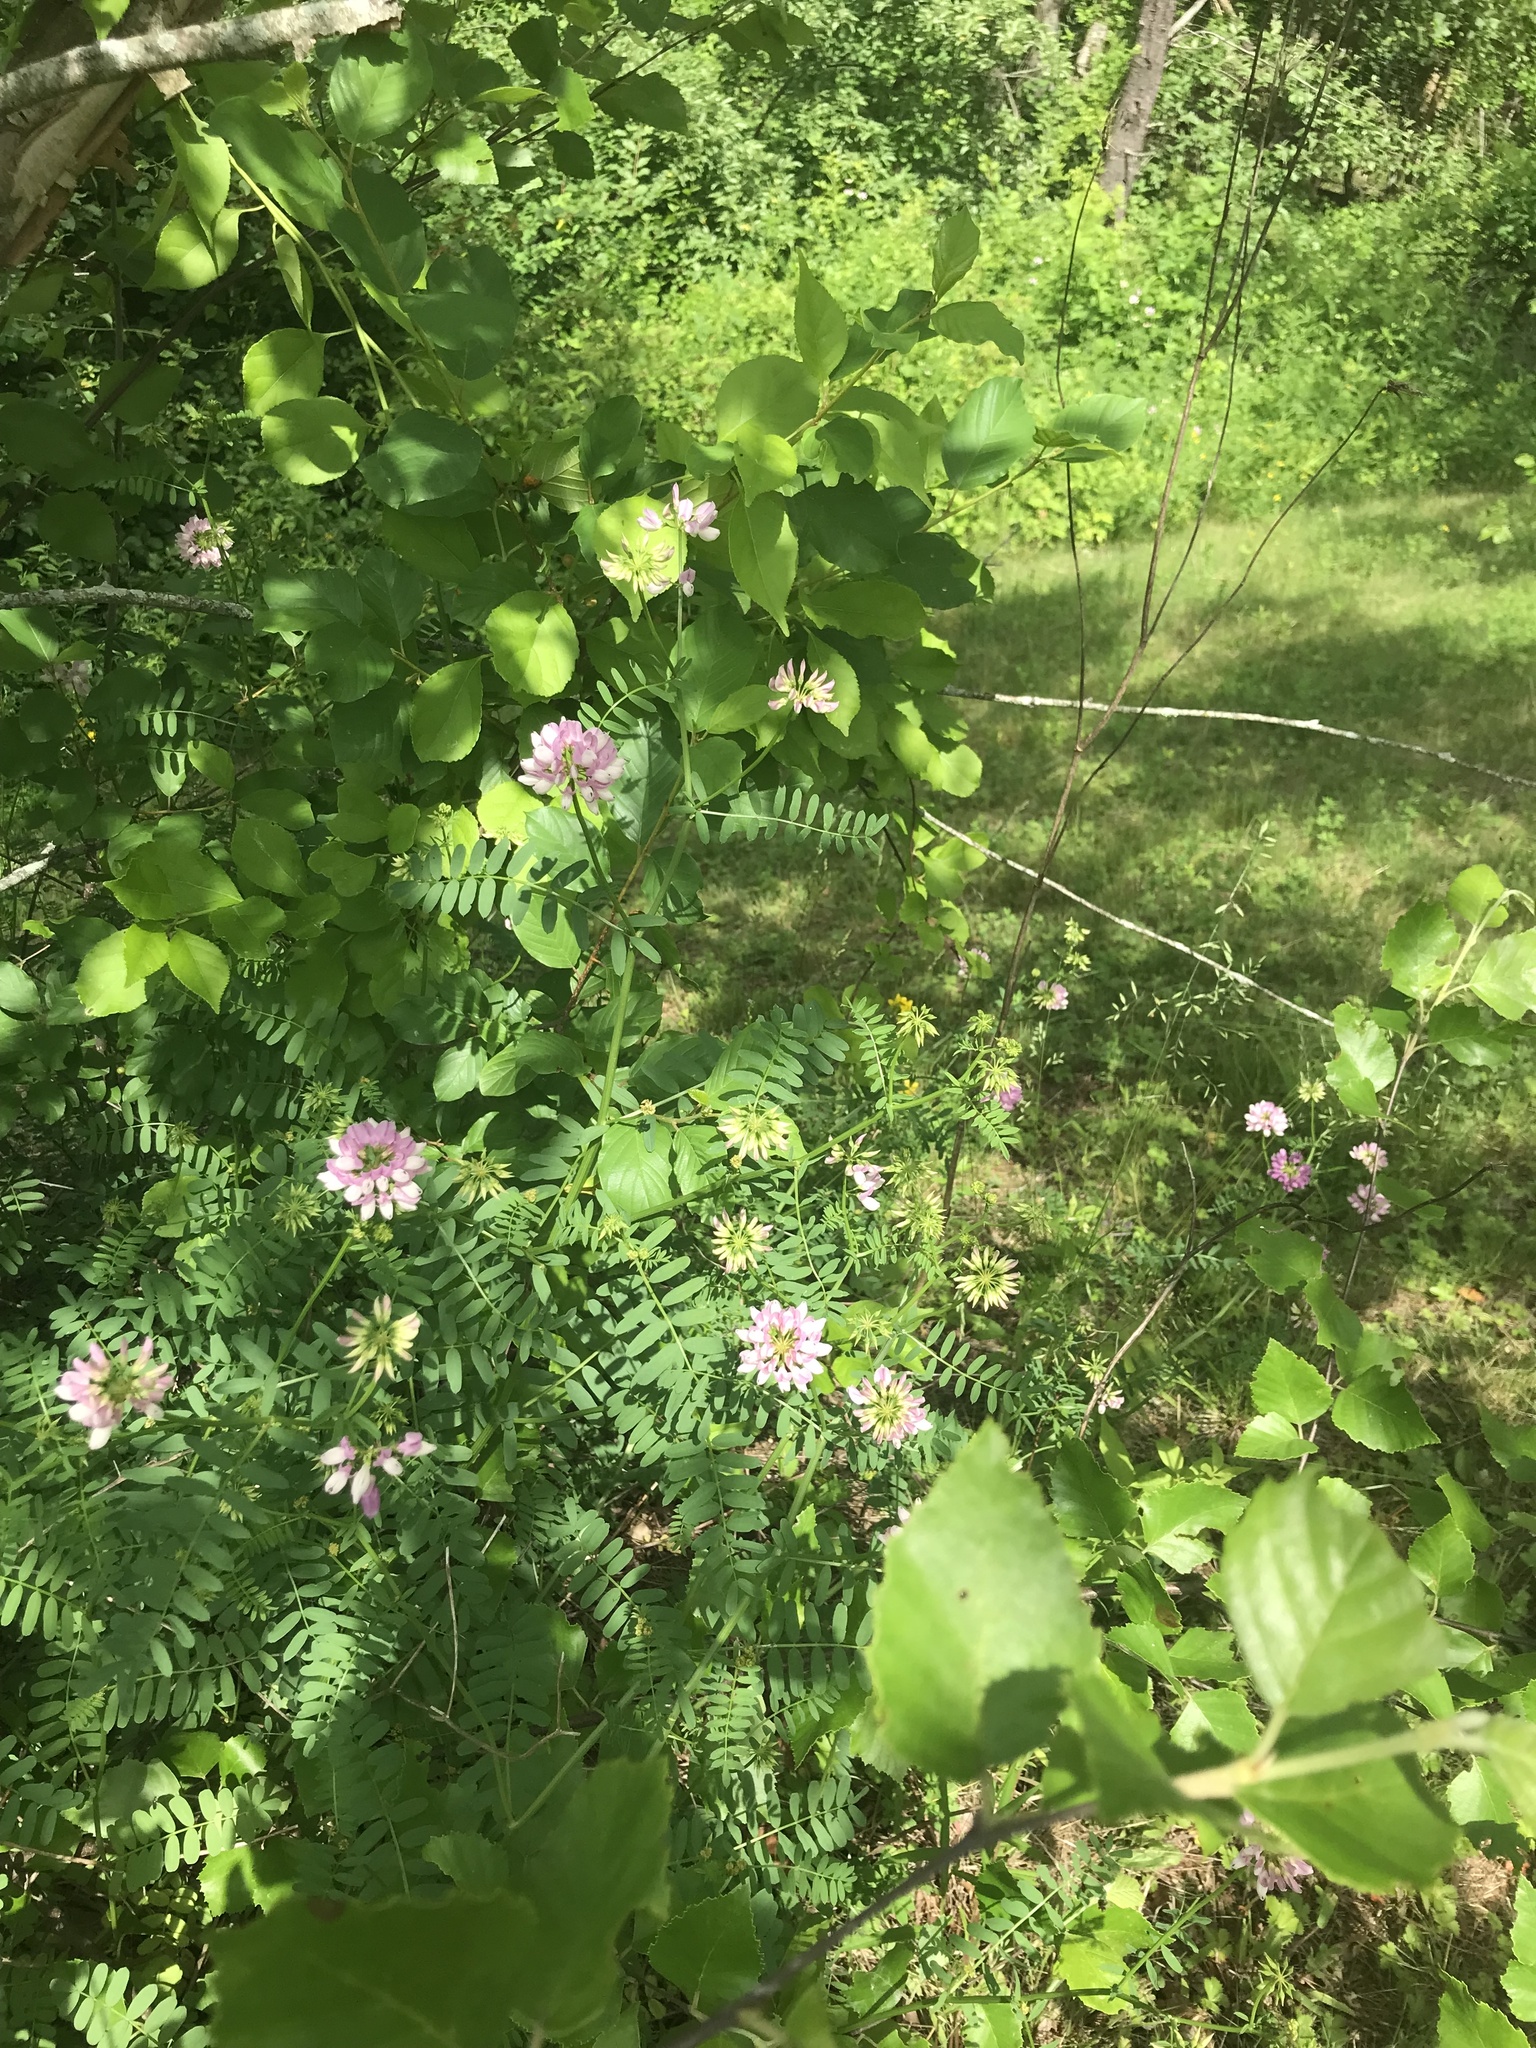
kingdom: Plantae
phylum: Tracheophyta
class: Magnoliopsida
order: Fabales
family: Fabaceae
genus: Coronilla
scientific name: Coronilla varia
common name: Crownvetch
